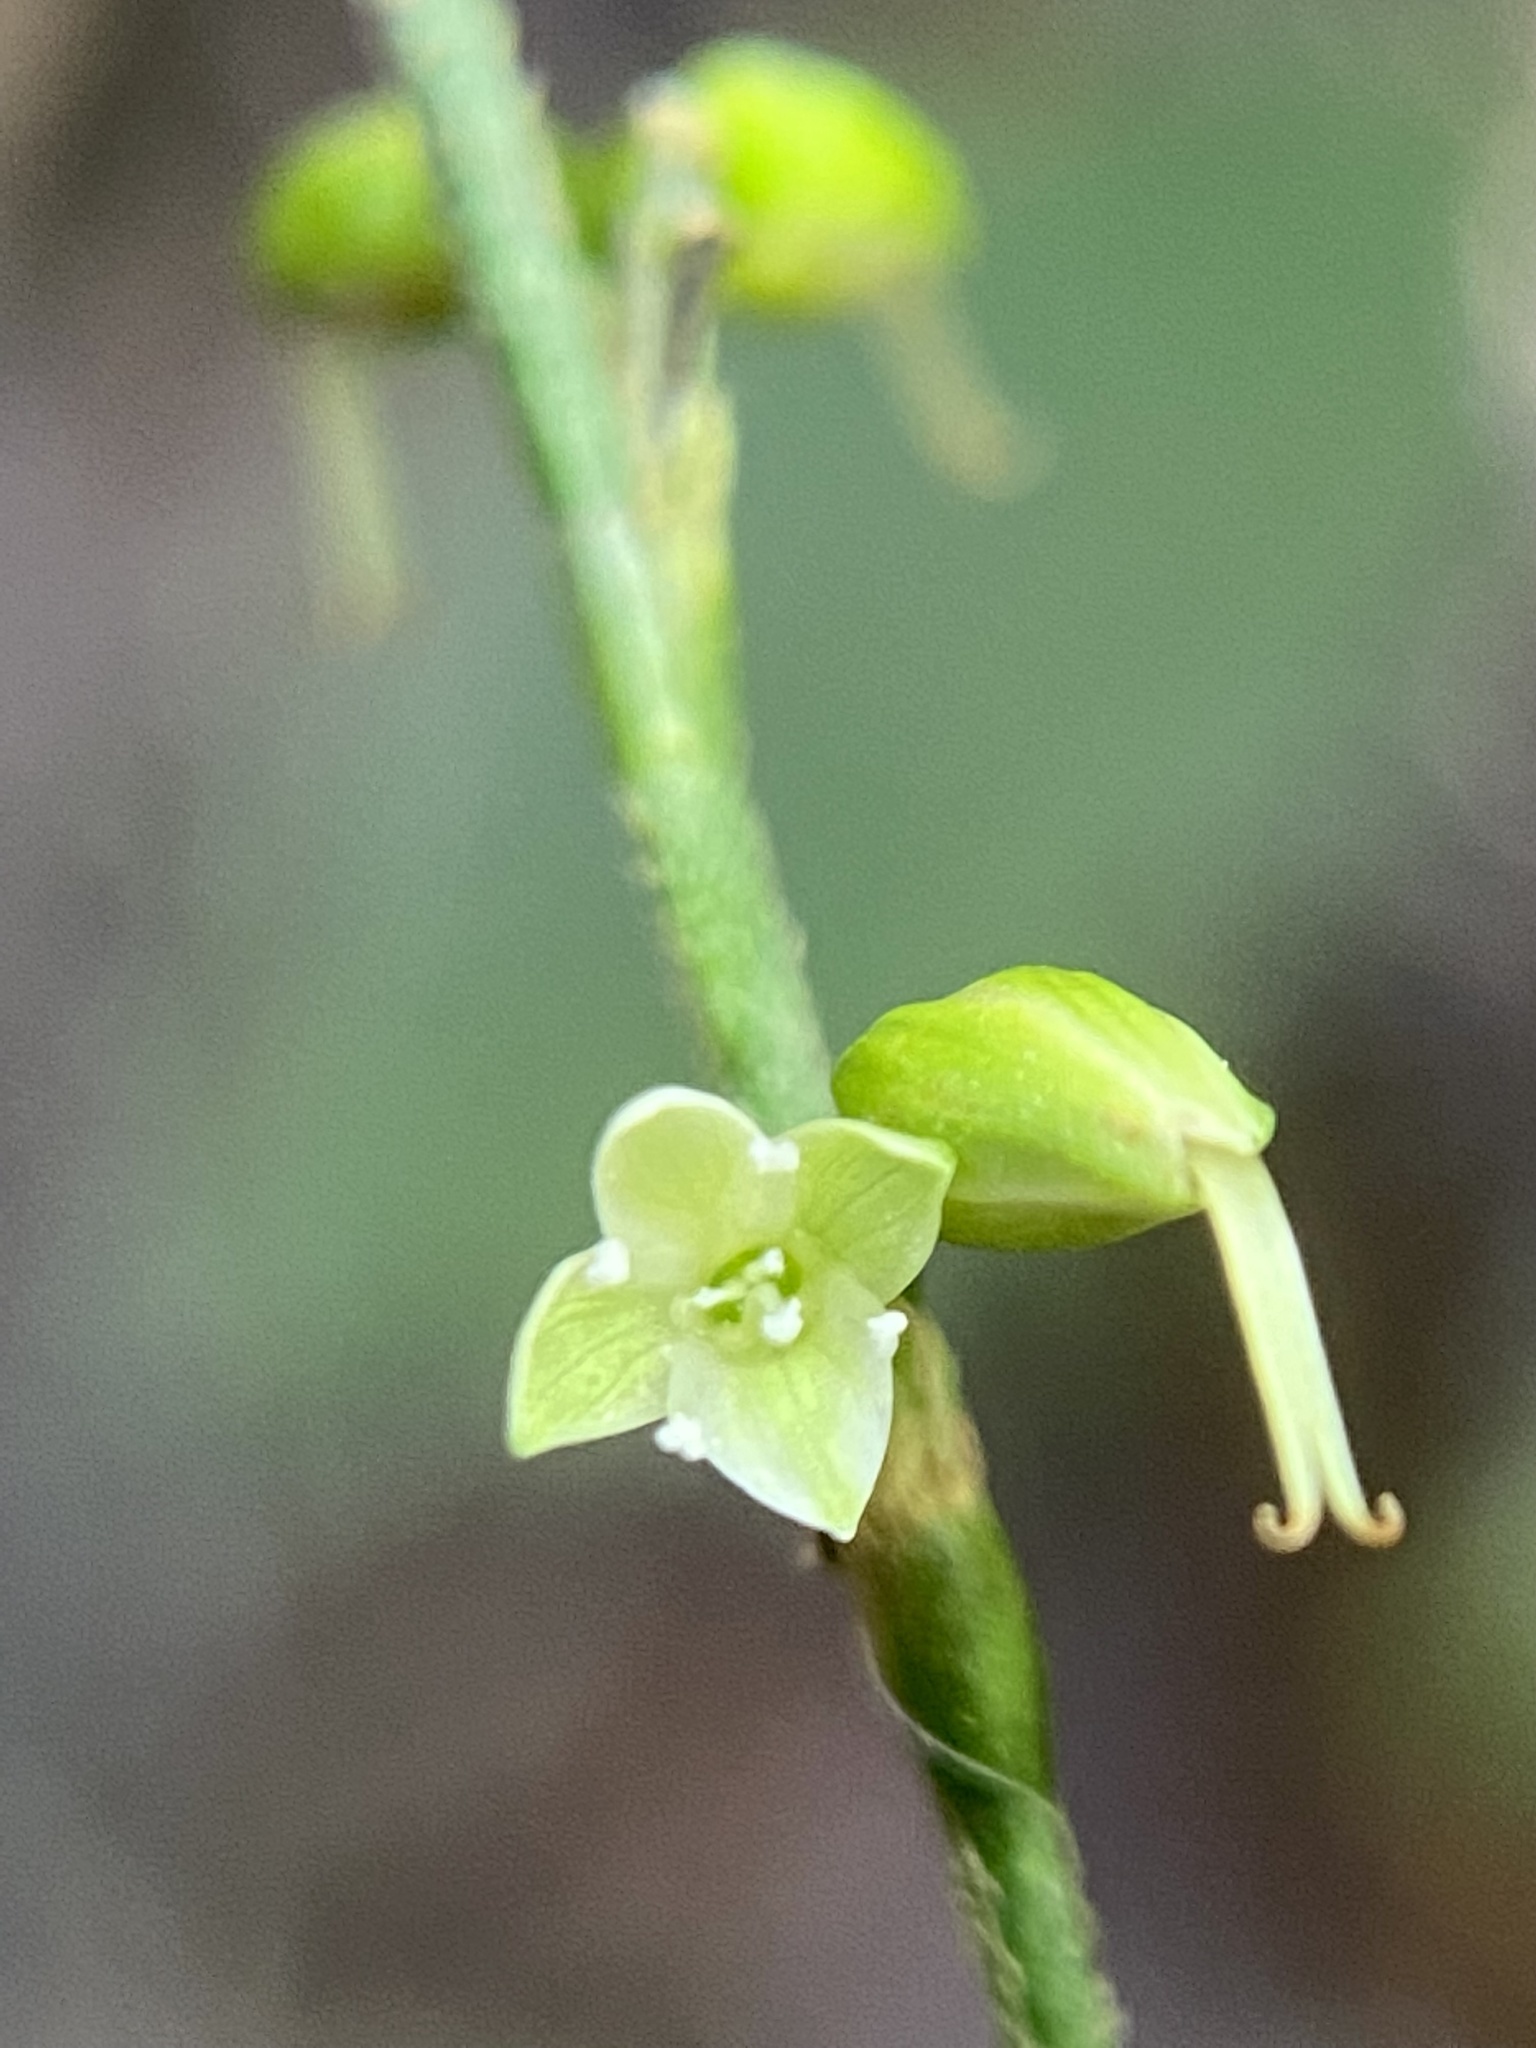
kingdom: Plantae
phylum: Tracheophyta
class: Magnoliopsida
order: Caryophyllales
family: Polygonaceae
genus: Persicaria
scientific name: Persicaria virginiana
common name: Jumpseed
